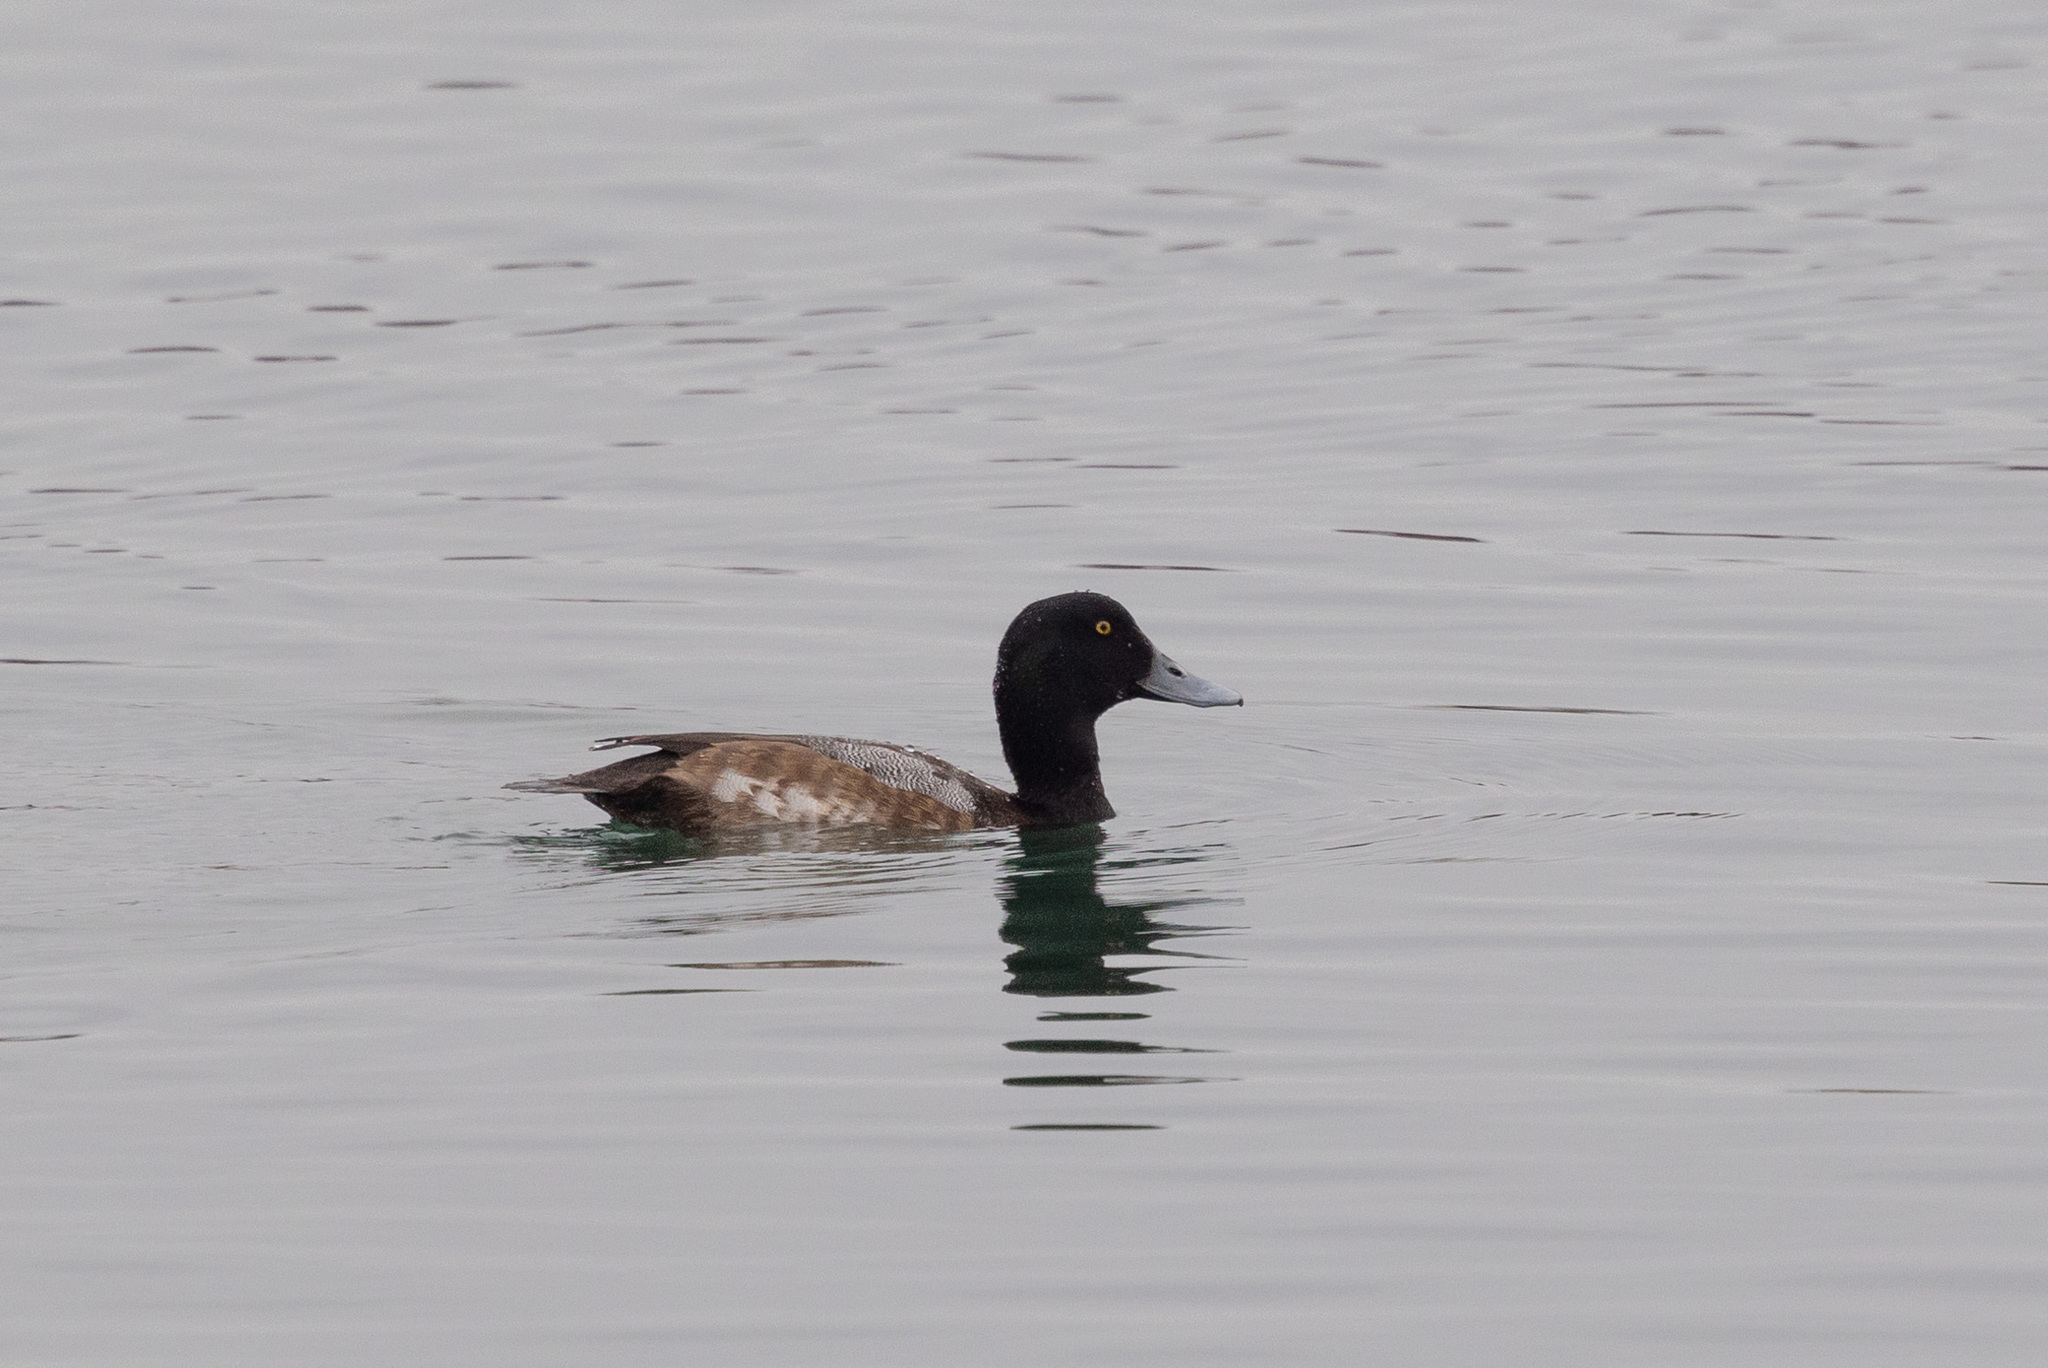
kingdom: Animalia
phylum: Chordata
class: Aves
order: Anseriformes
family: Anatidae
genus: Aythya
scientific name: Aythya marila
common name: Greater scaup
